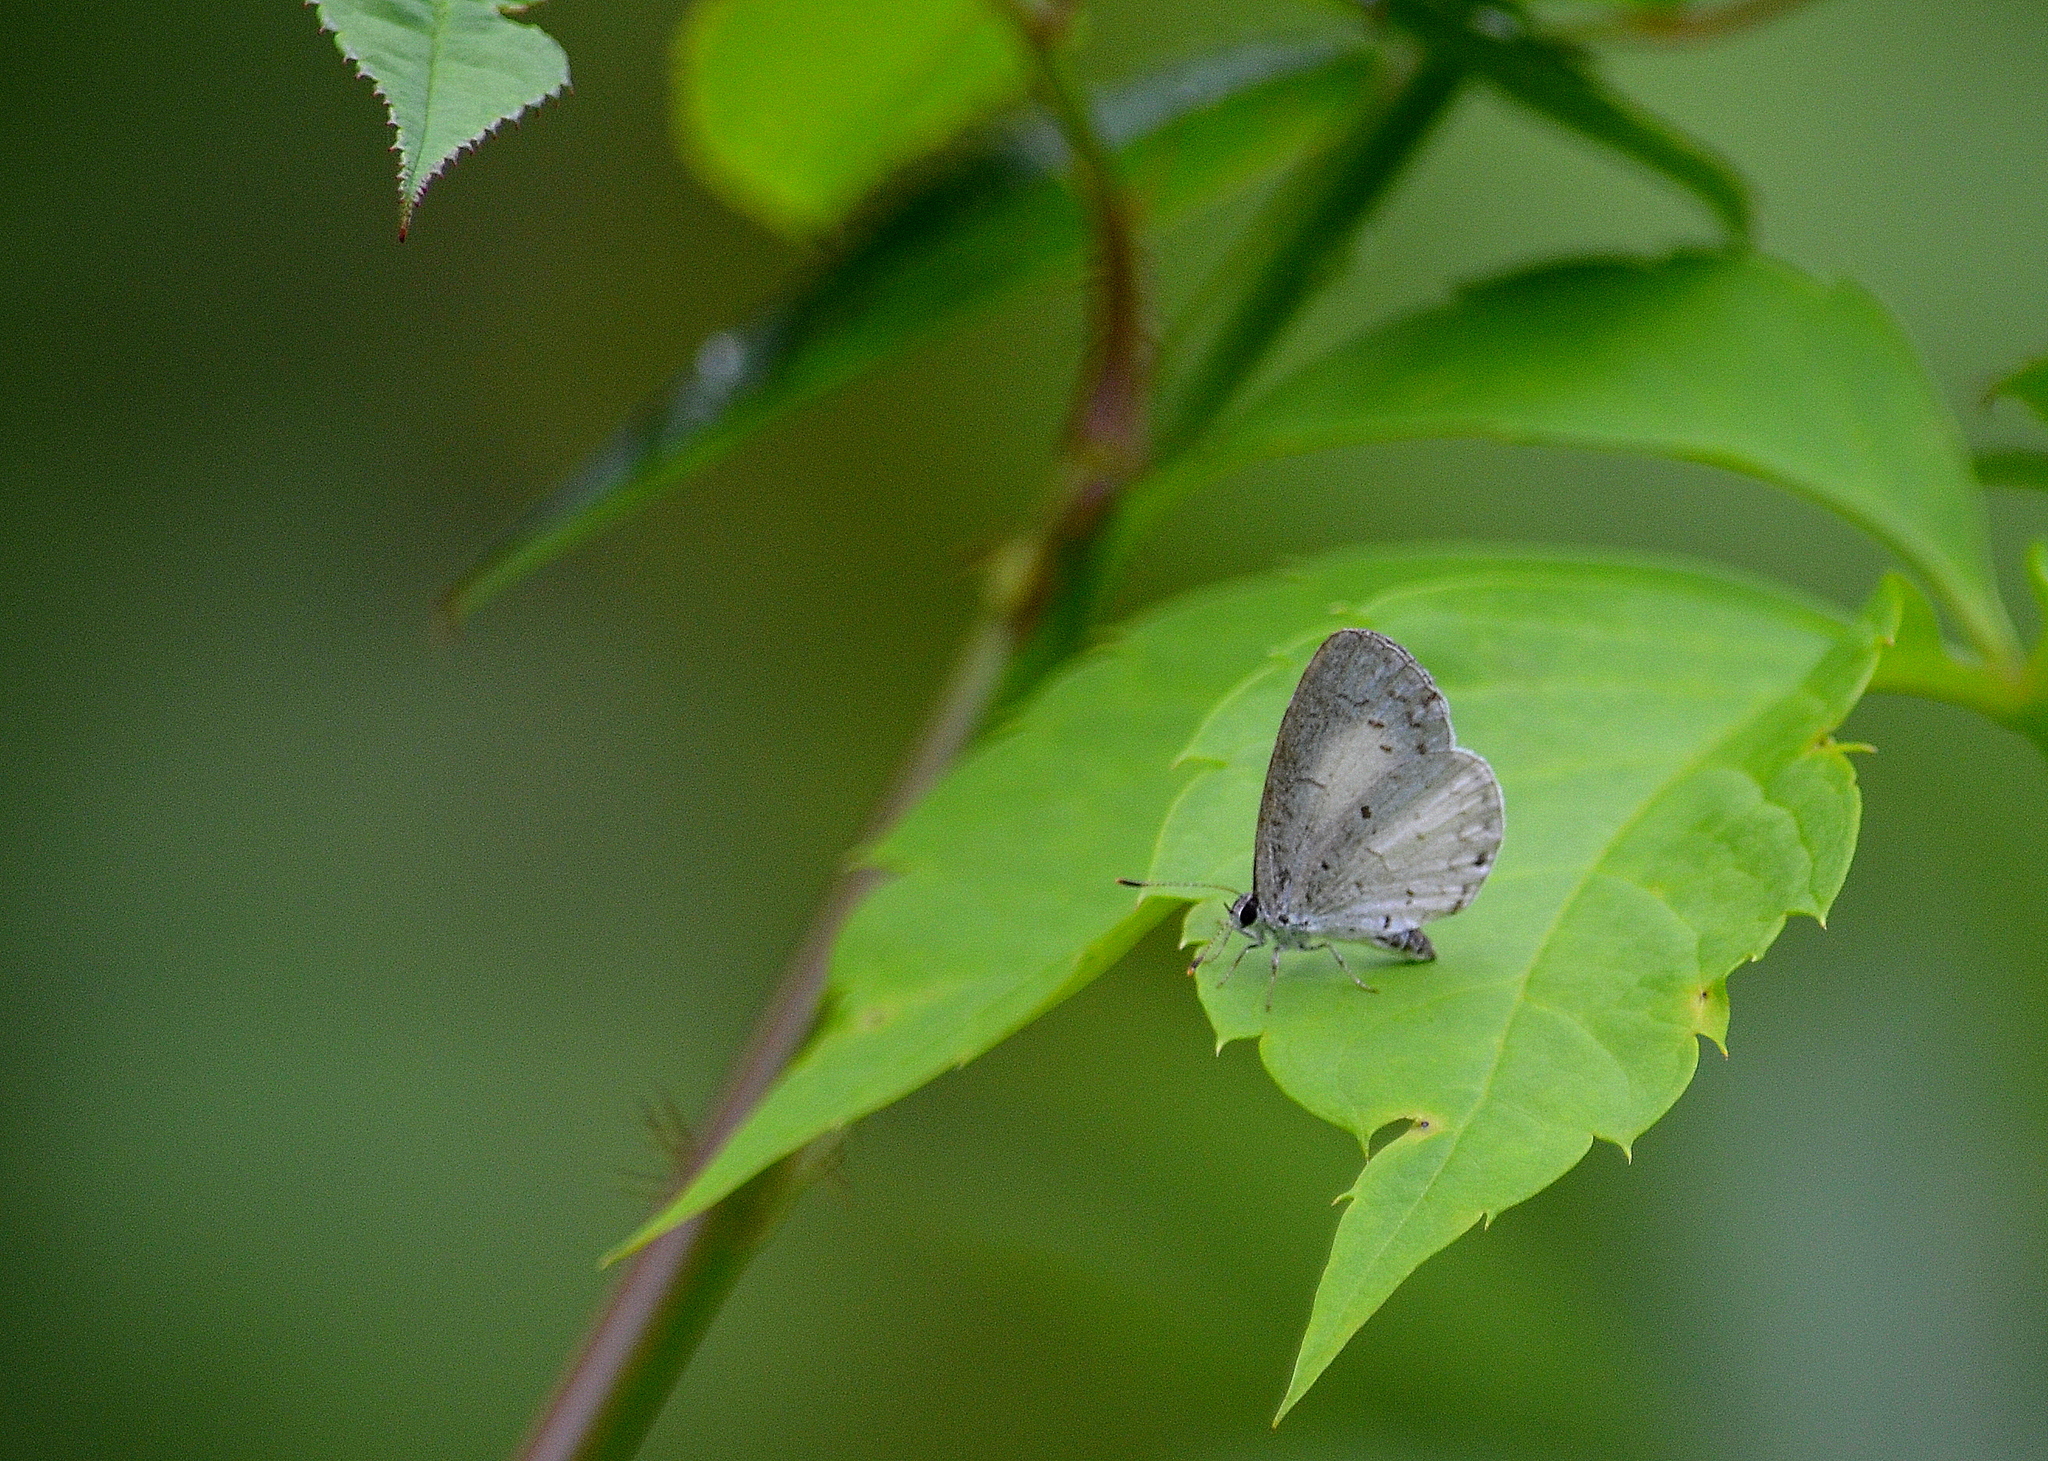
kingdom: Animalia
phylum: Arthropoda
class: Insecta
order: Lepidoptera
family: Lycaenidae
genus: Cyaniris
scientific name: Cyaniris neglecta
